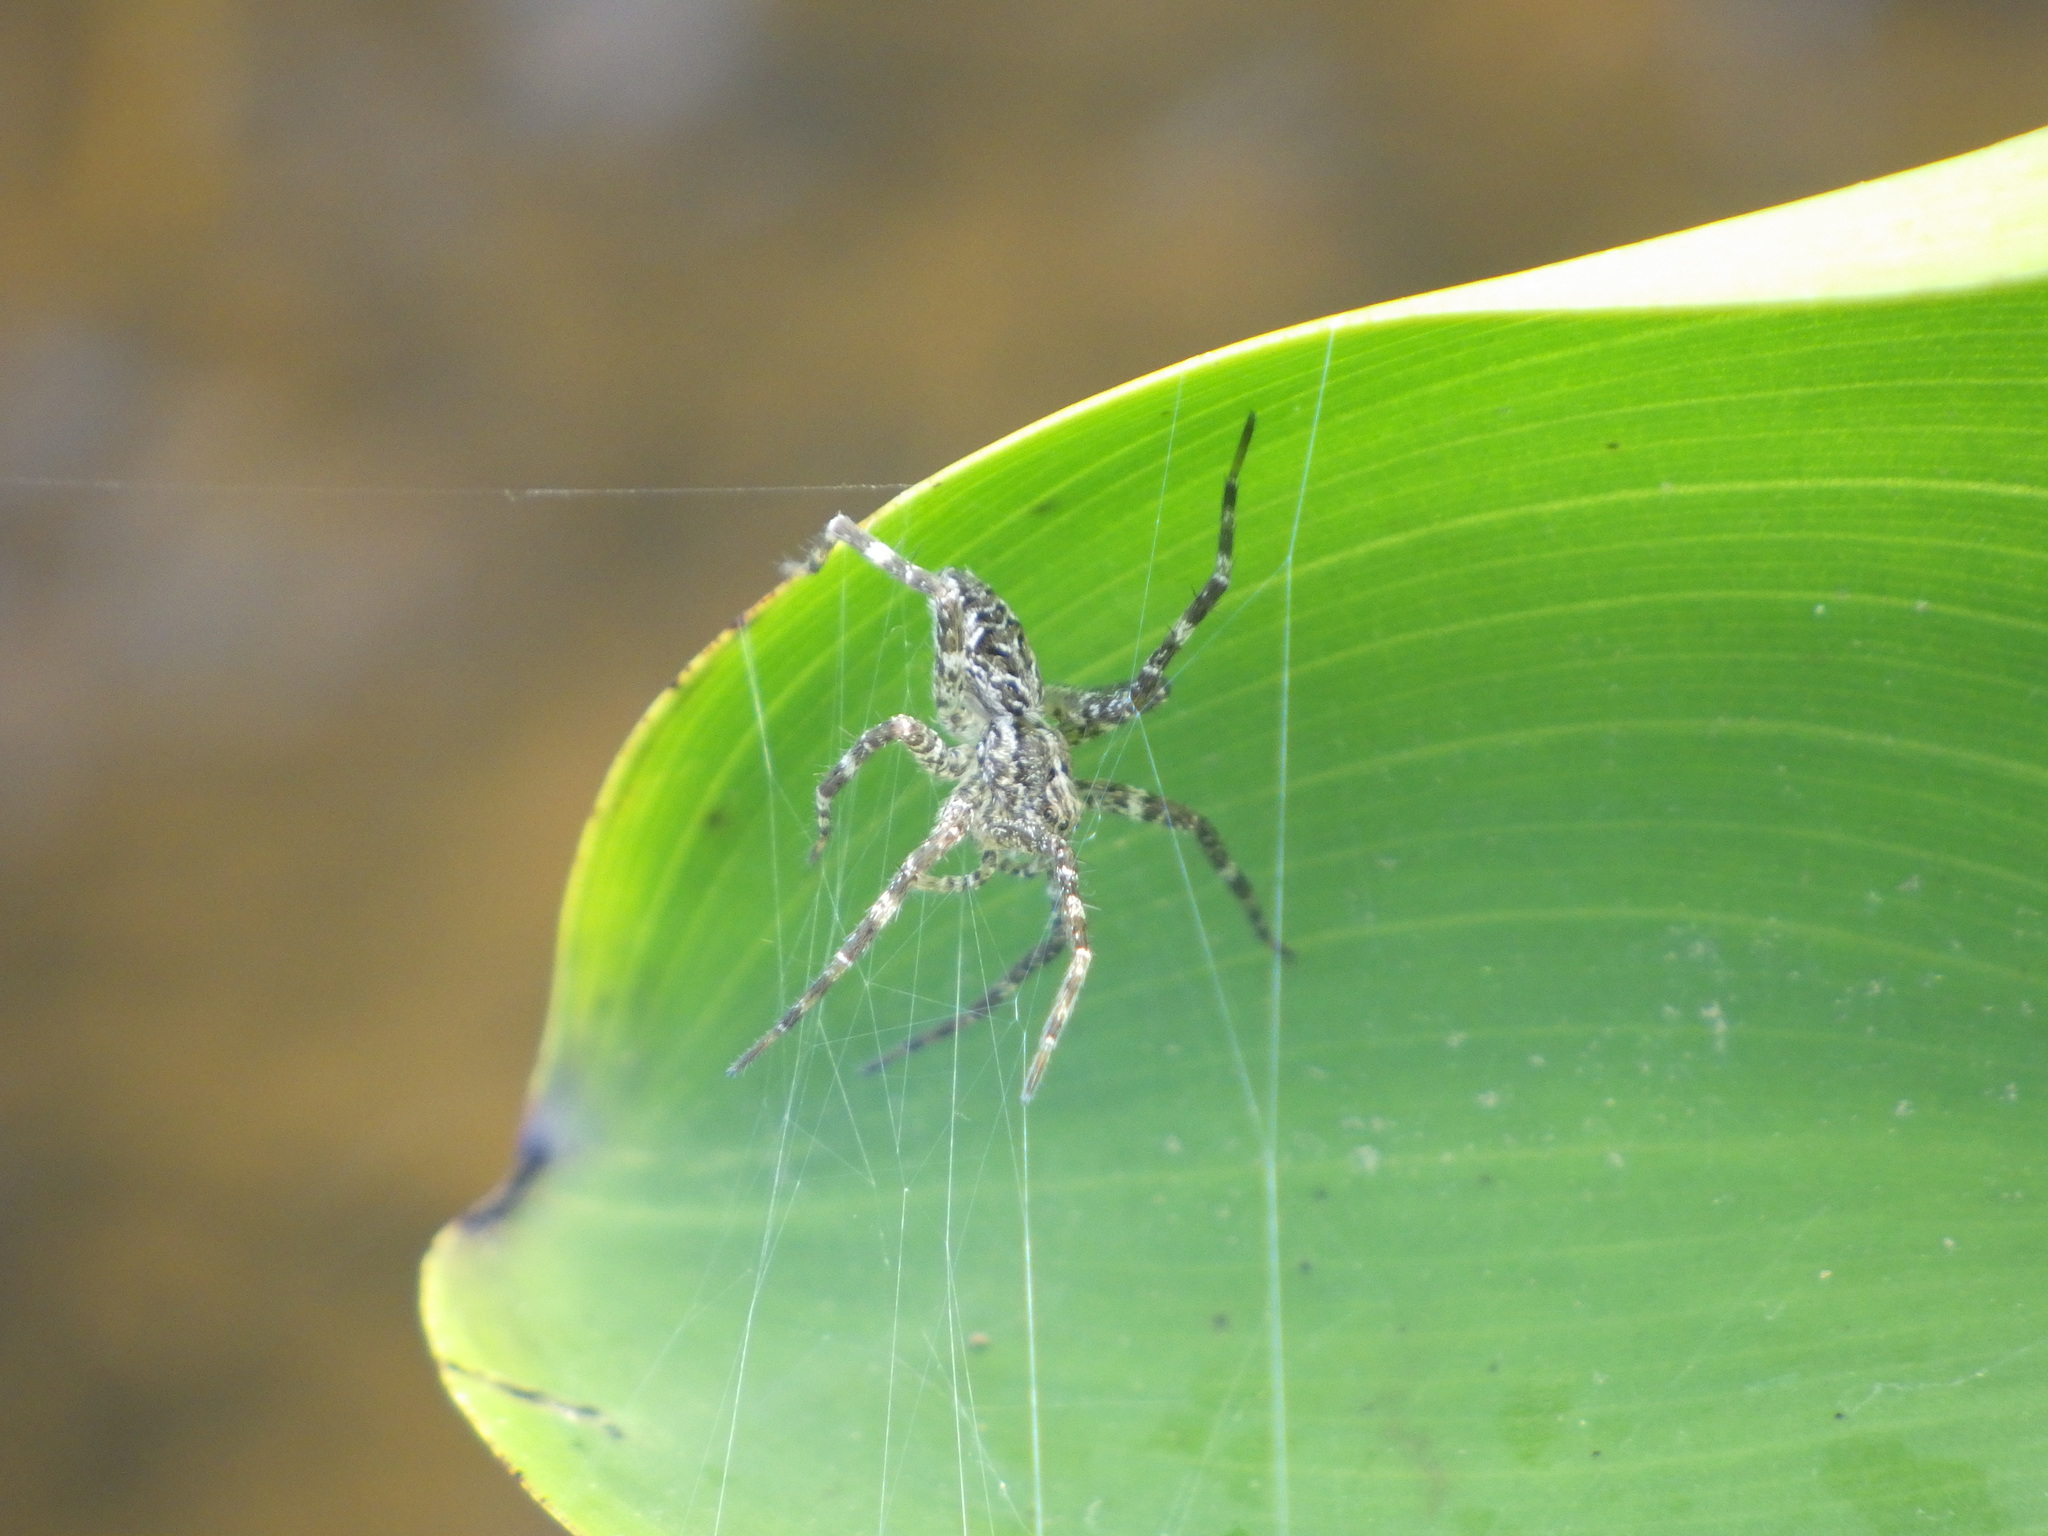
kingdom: Animalia
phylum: Arthropoda
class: Arachnida
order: Araneae
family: Pisauridae
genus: Dolomedes
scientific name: Dolomedes scriptus
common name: Striped fishing spider
